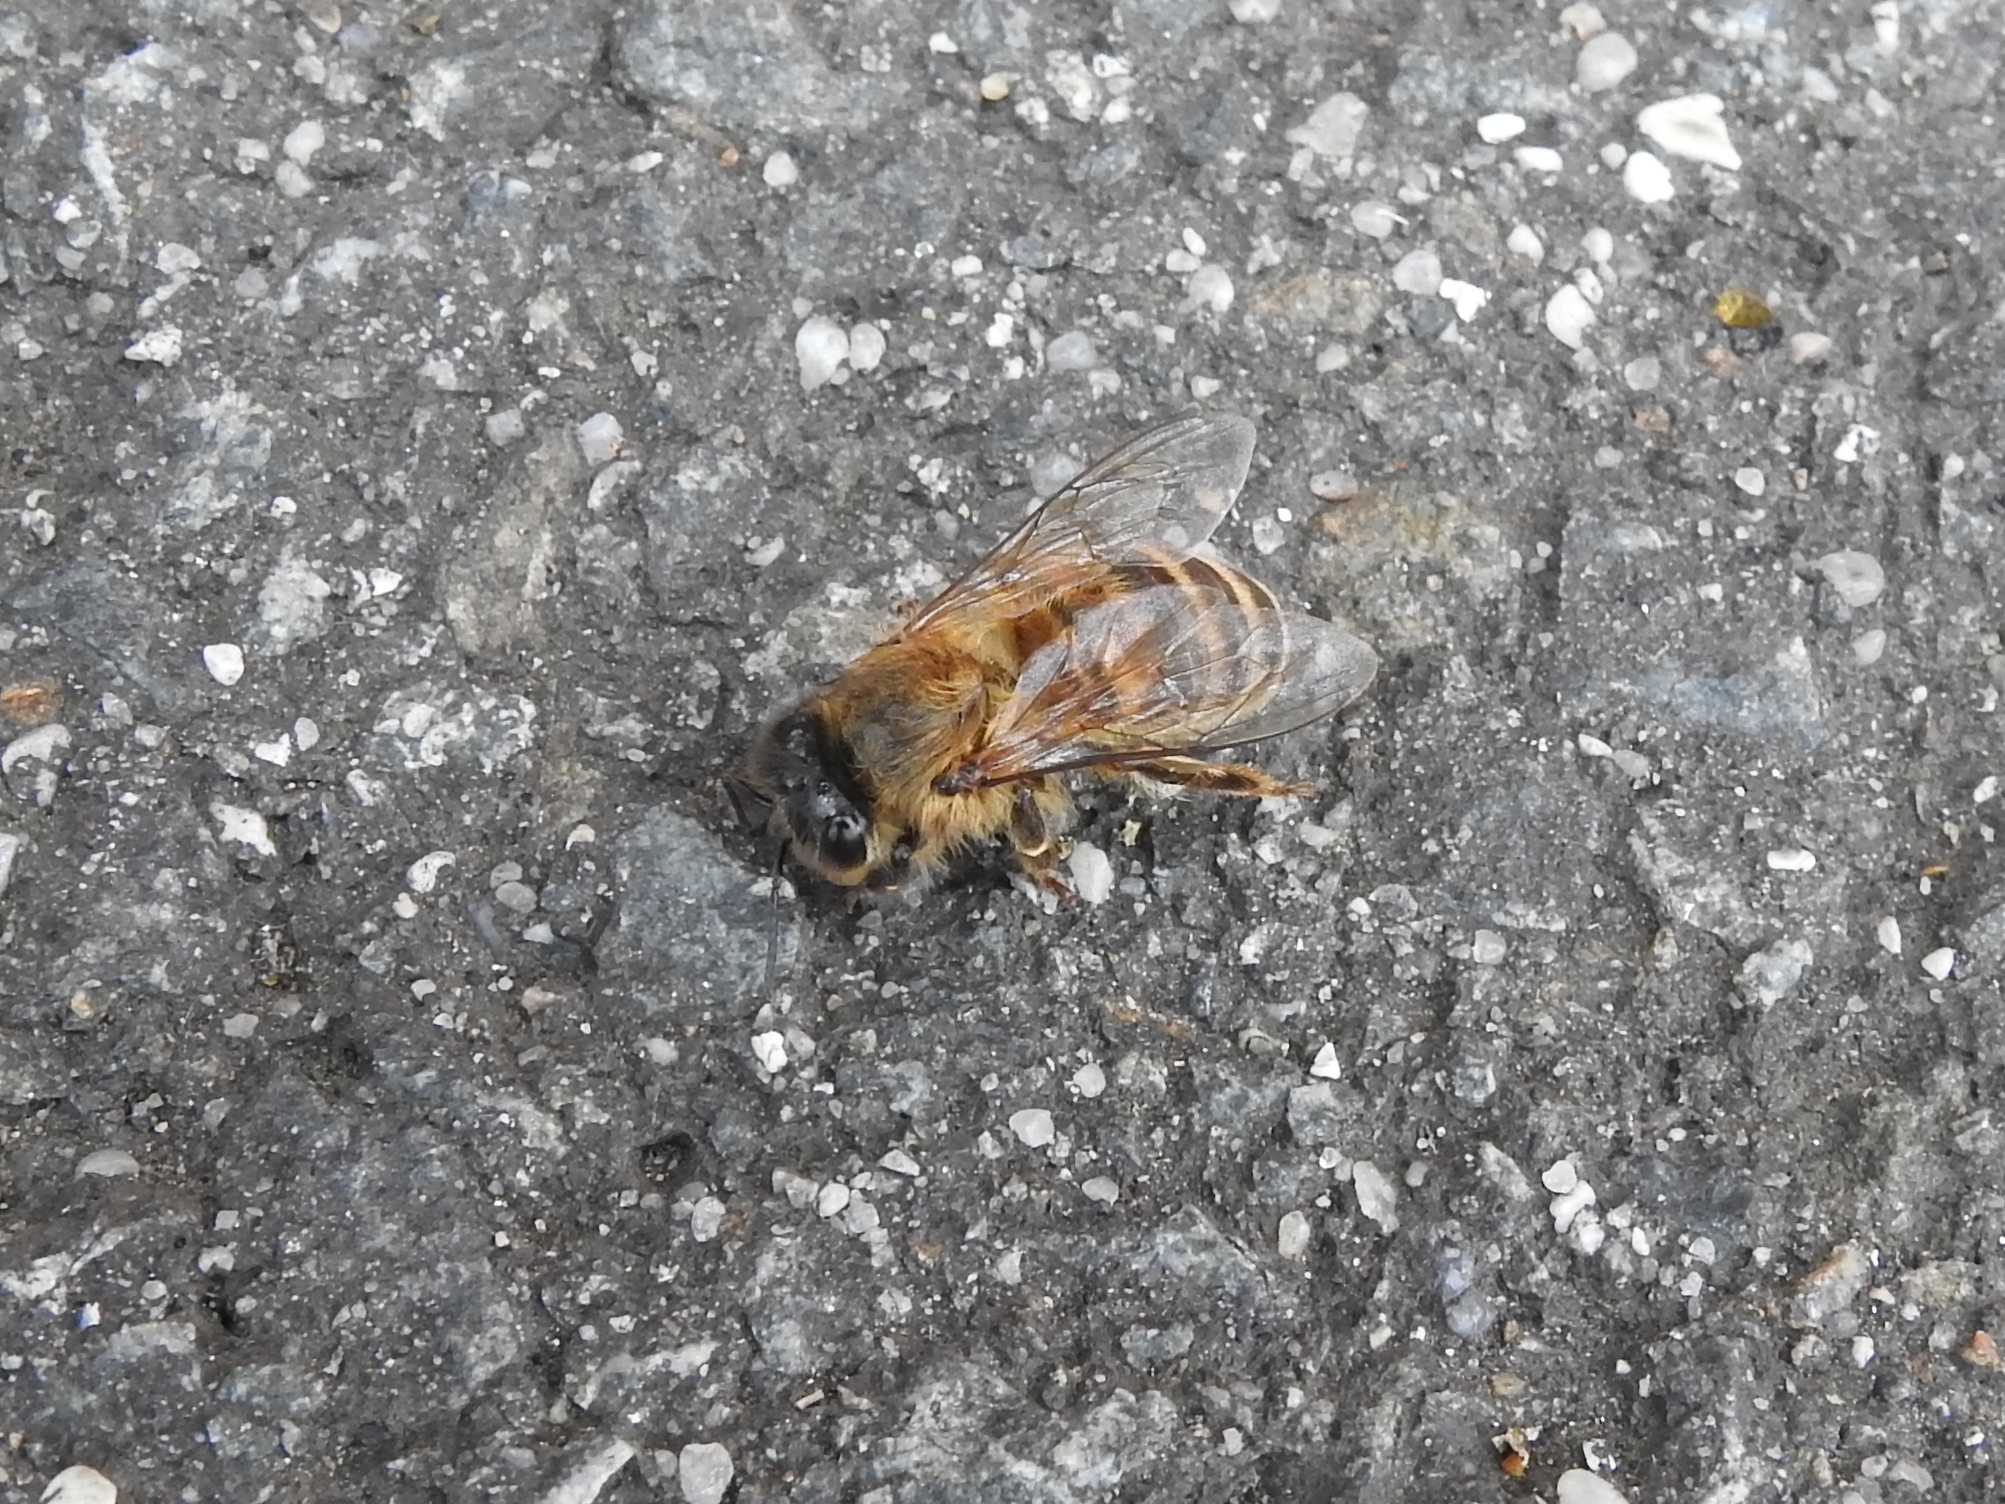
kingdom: Animalia
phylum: Arthropoda
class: Insecta
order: Hymenoptera
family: Apidae
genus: Apis
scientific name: Apis mellifera
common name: Honey bee
